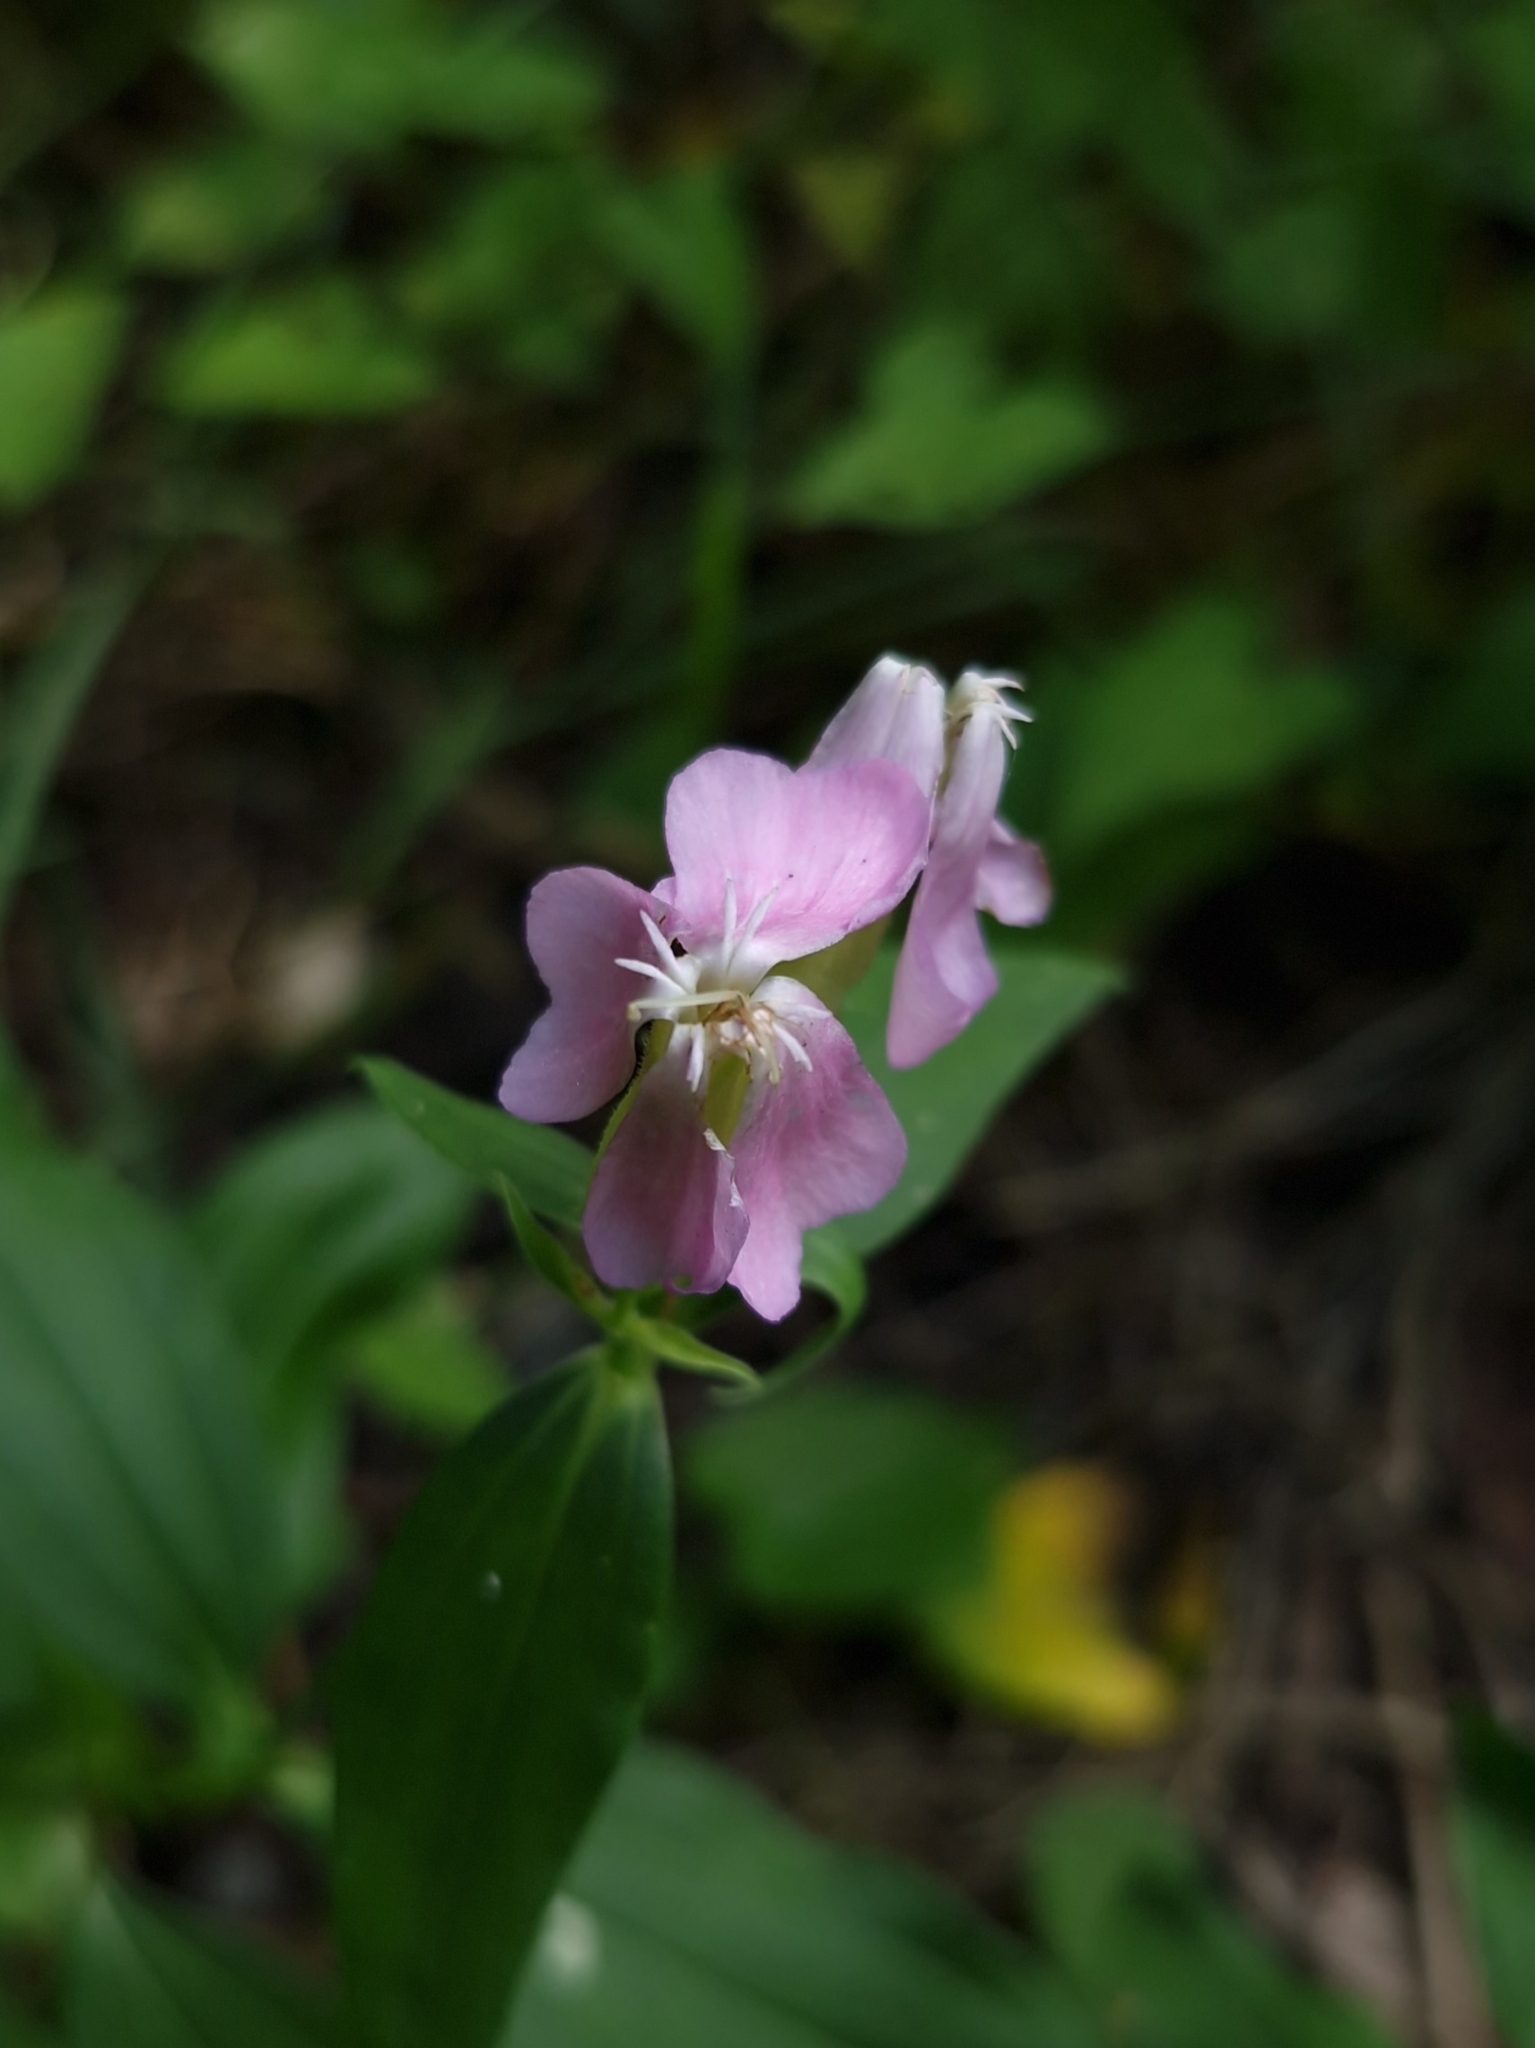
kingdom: Plantae
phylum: Tracheophyta
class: Magnoliopsida
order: Caryophyllales
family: Caryophyllaceae
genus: Saponaria
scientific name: Saponaria officinalis
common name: Soapwort
